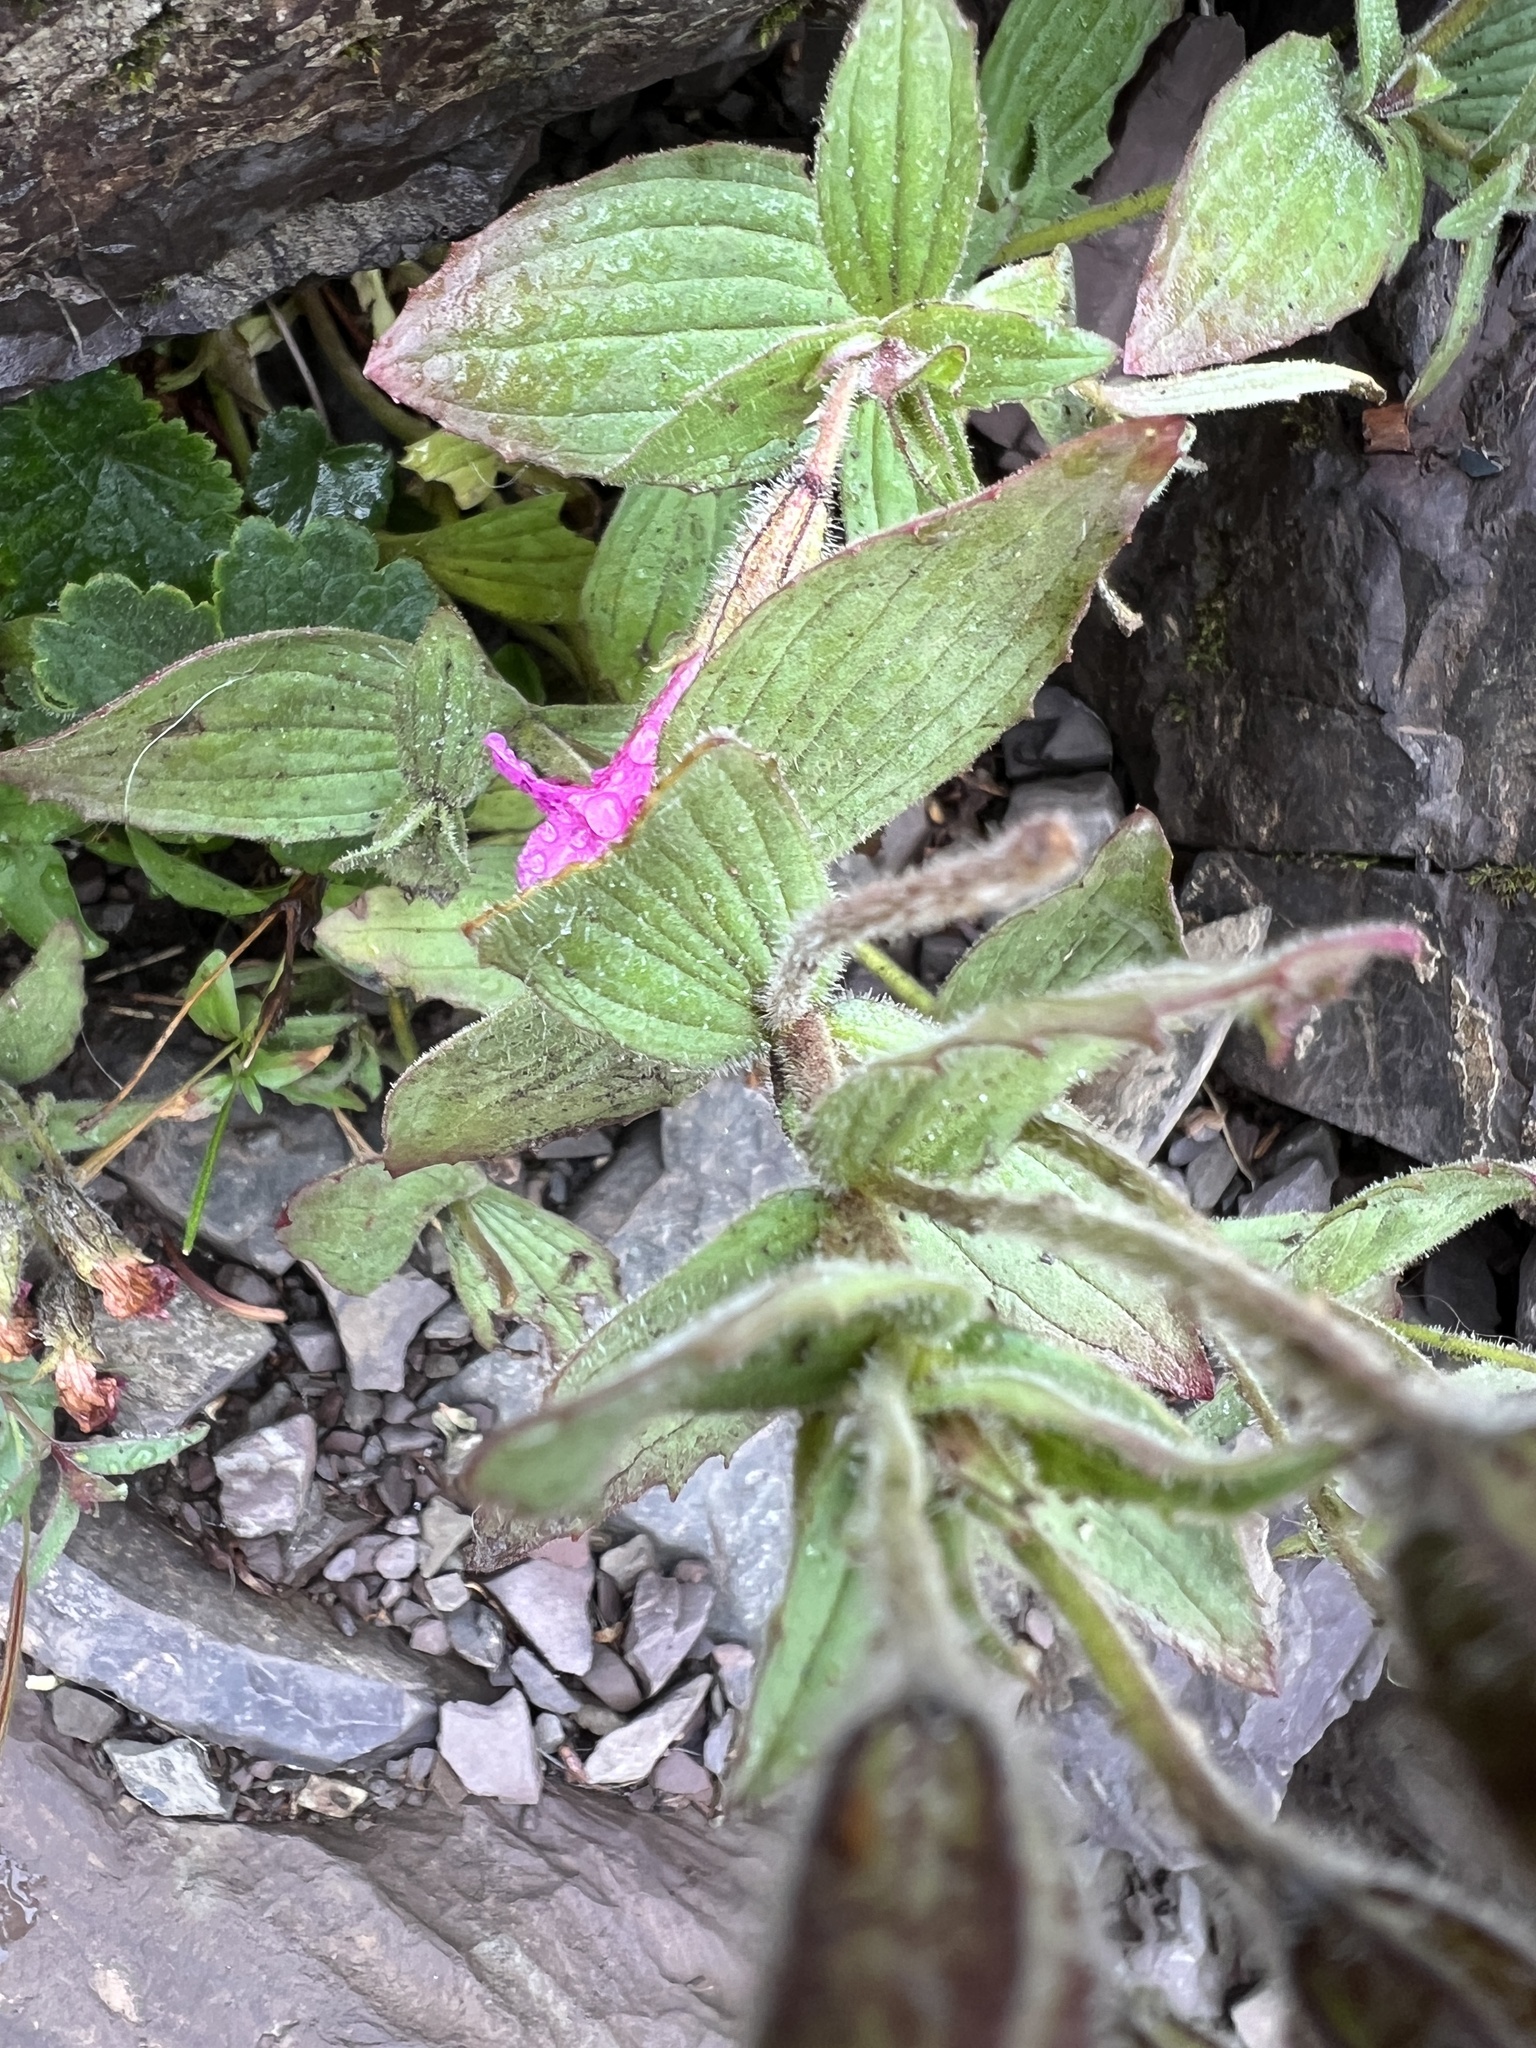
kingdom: Plantae
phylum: Tracheophyta
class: Magnoliopsida
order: Lamiales
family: Phrymaceae
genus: Erythranthe
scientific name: Erythranthe lewisii
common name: Lewis's monkey-flower
